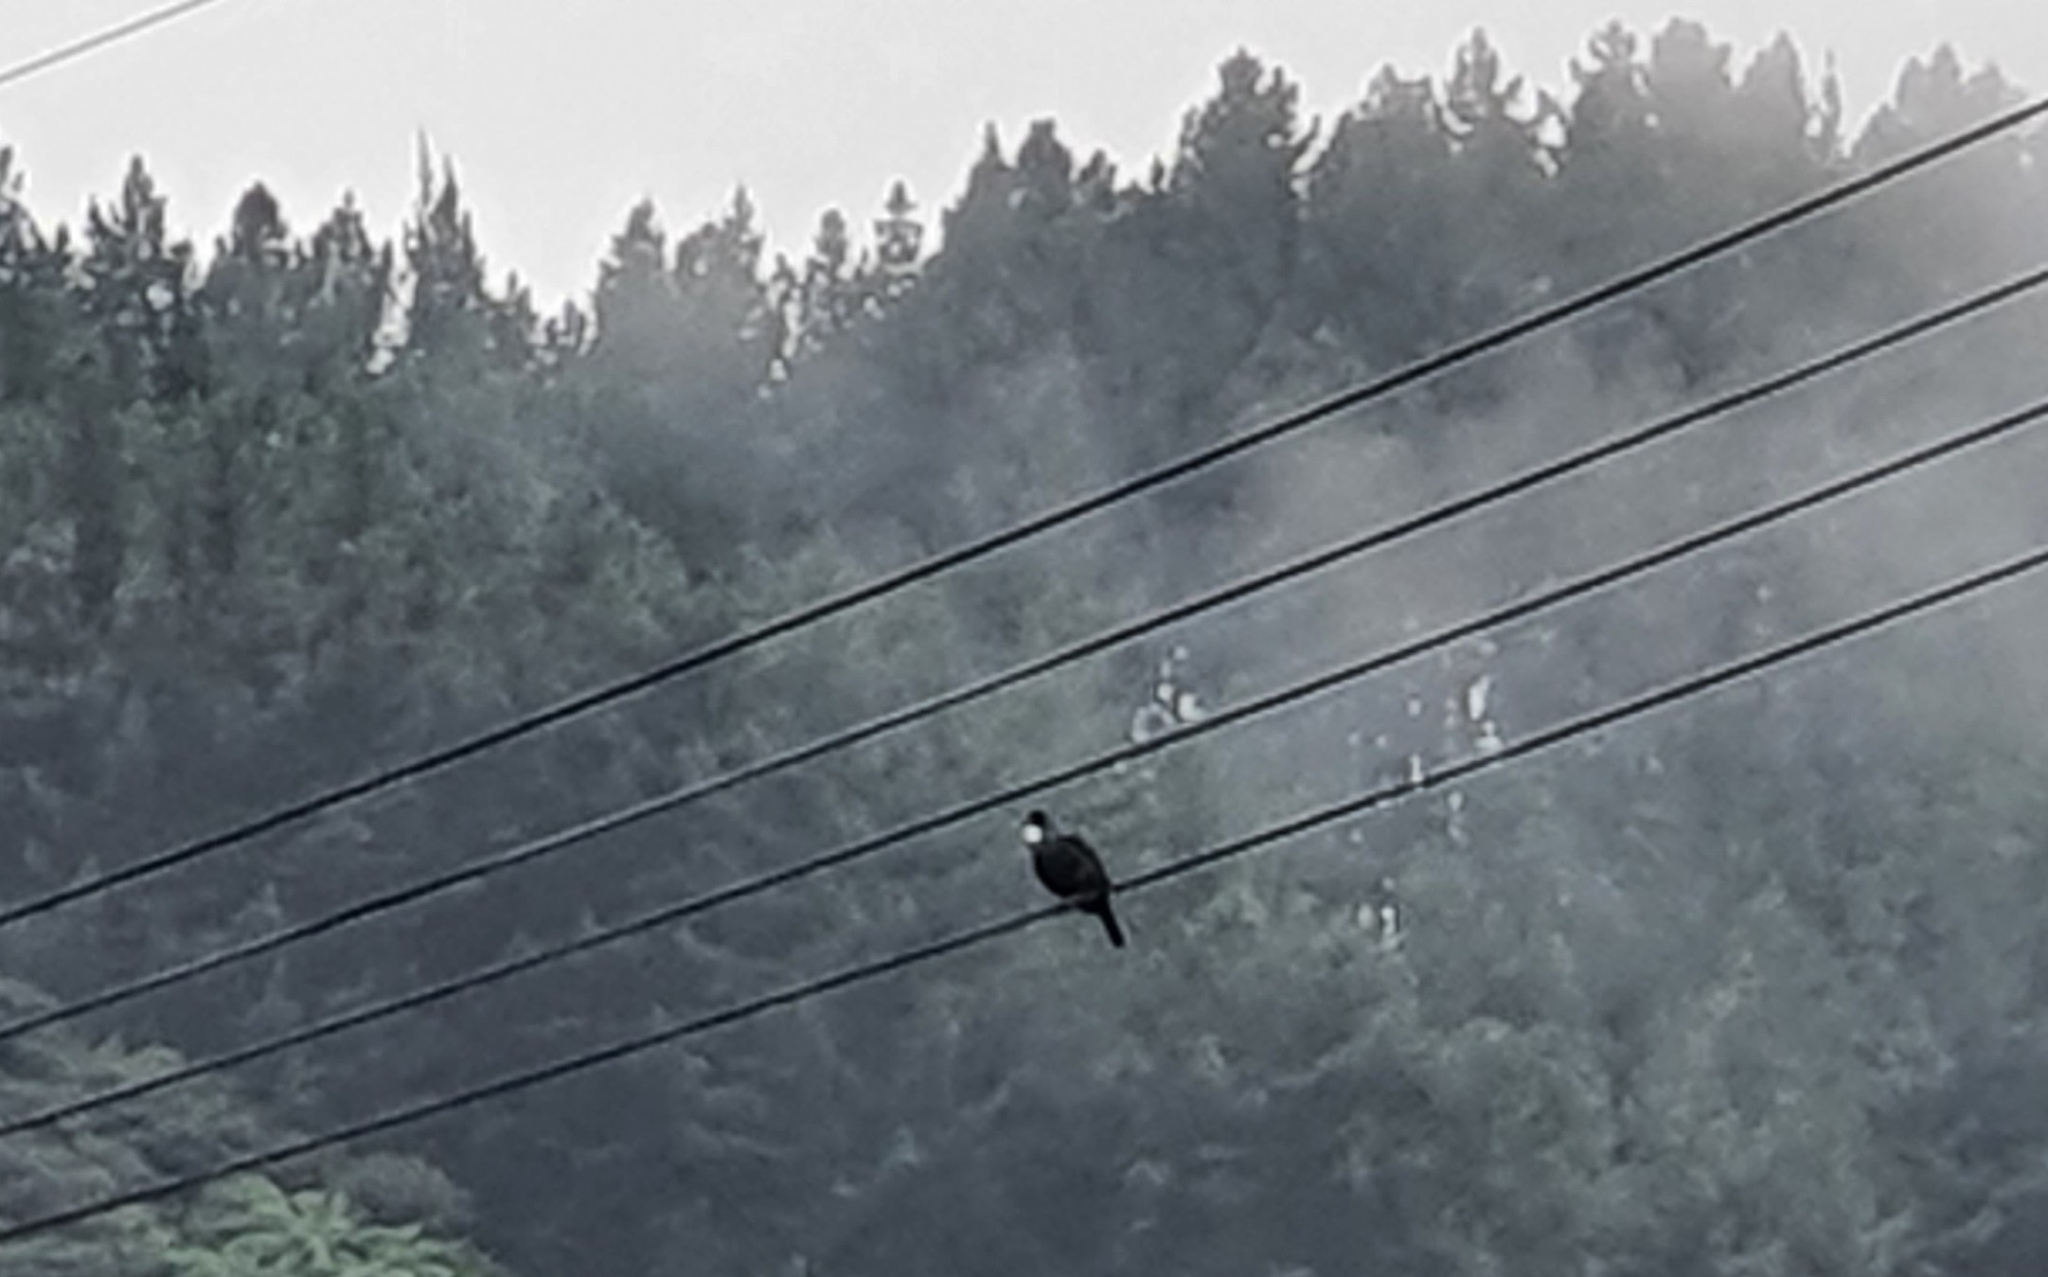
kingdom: Animalia
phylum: Chordata
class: Aves
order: Passeriformes
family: Meliphagidae
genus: Prosthemadera
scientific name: Prosthemadera novaeseelandiae
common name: Tui
